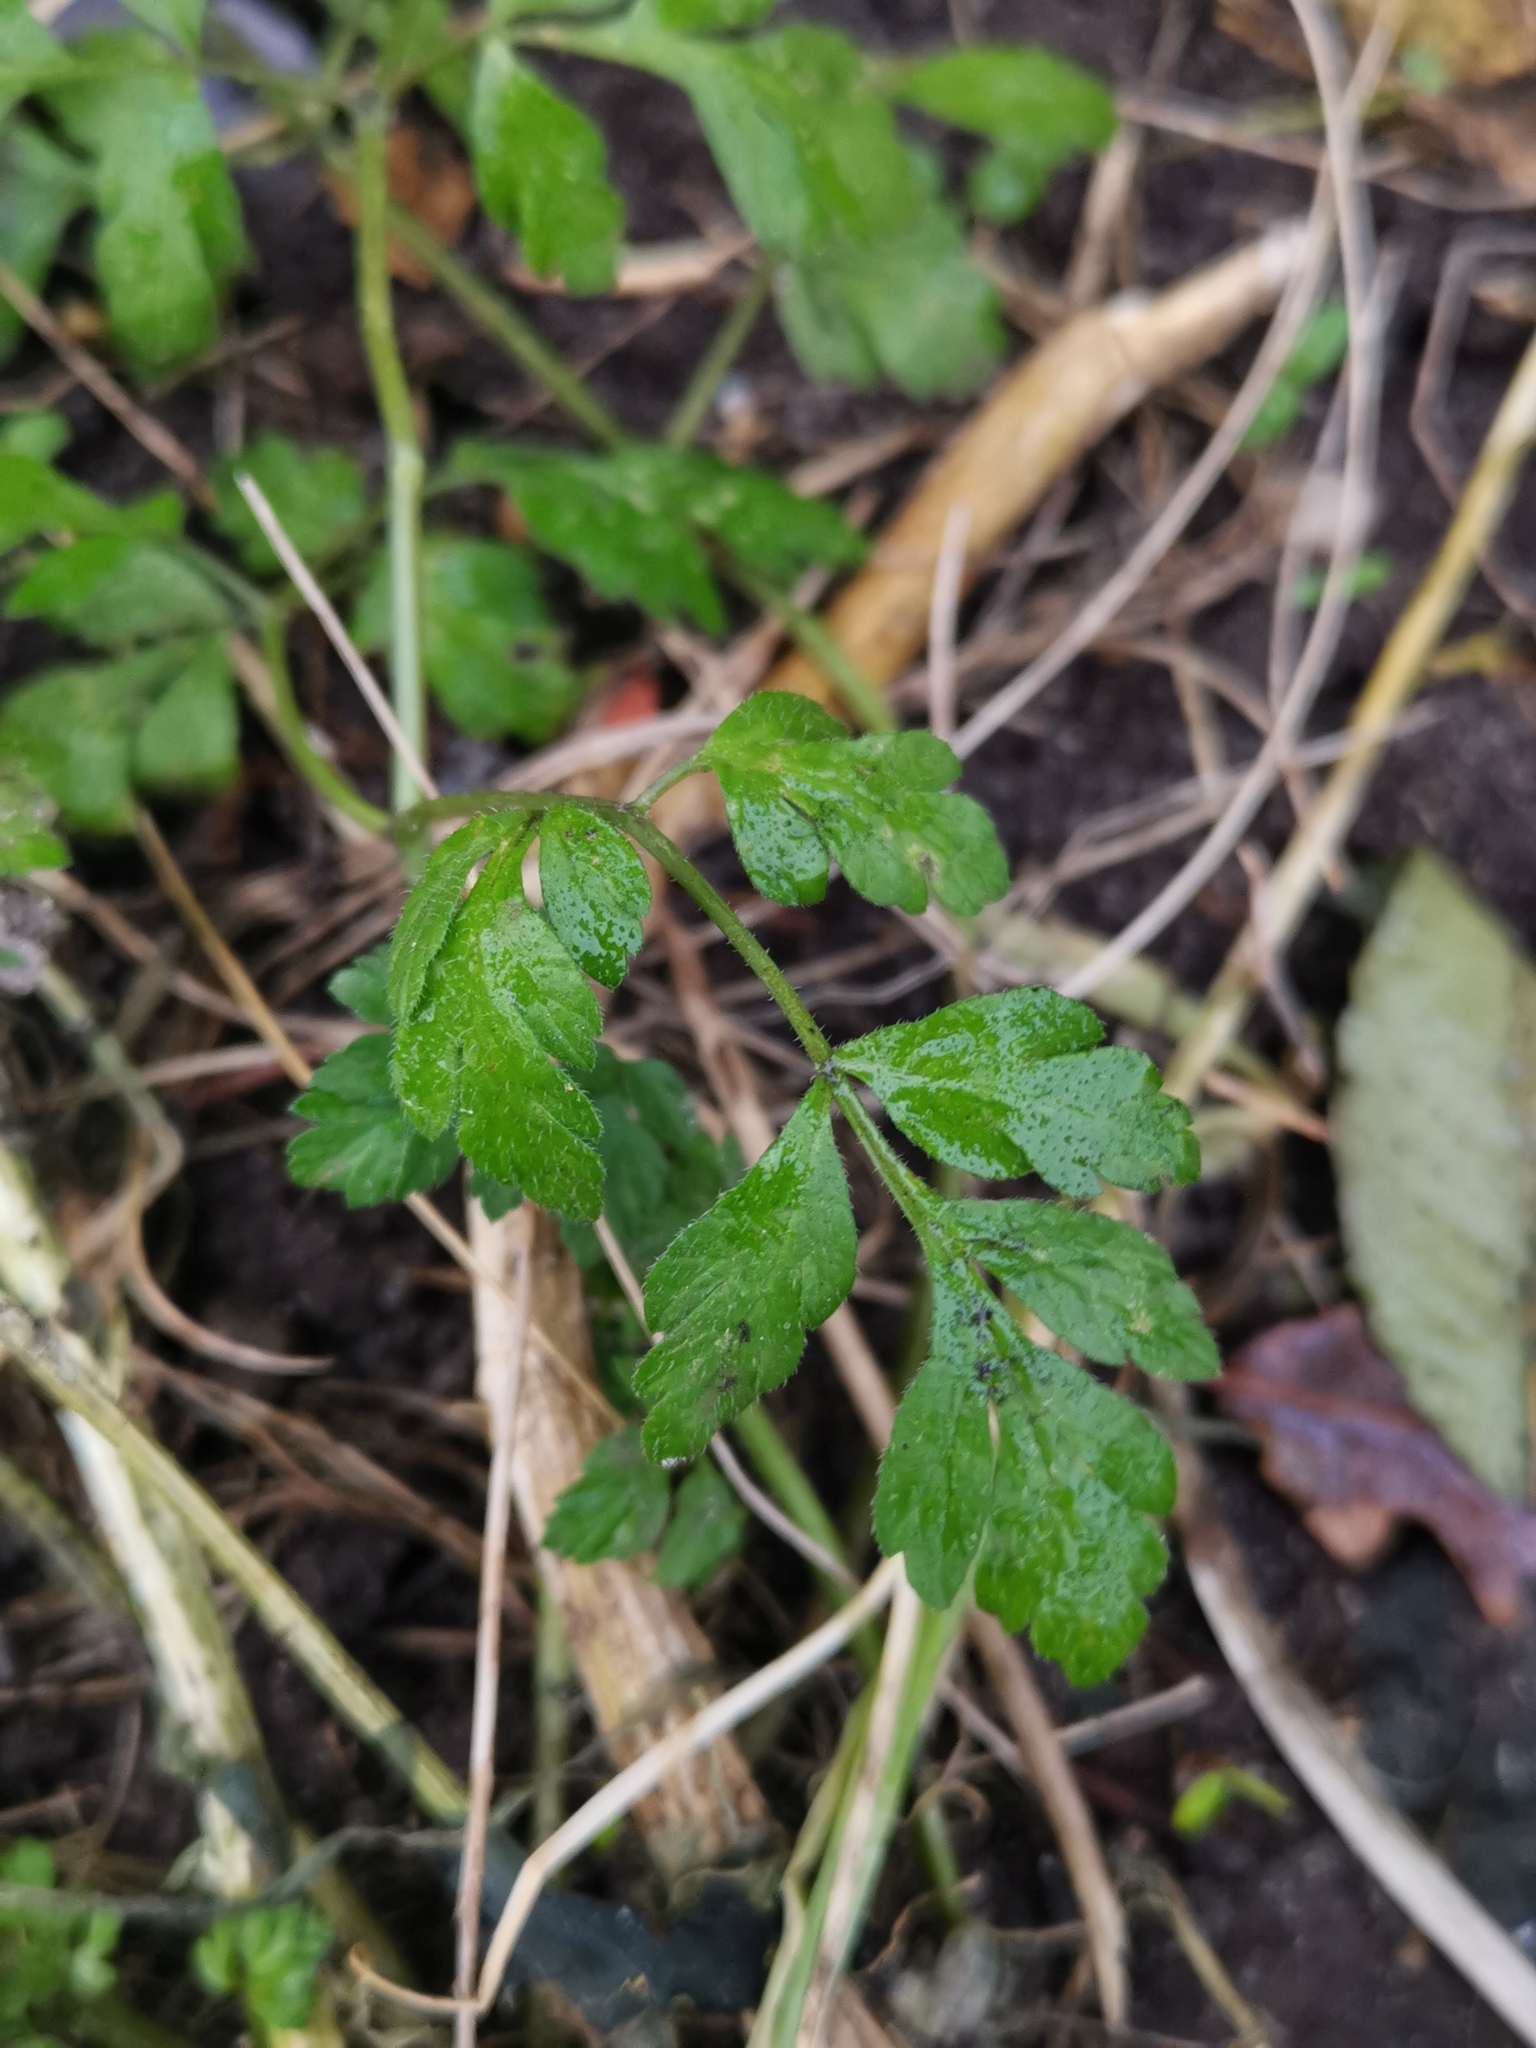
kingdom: Plantae
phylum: Tracheophyta
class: Magnoliopsida
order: Apiales
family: Apiaceae
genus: Chaerophyllum
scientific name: Chaerophyllum temulum
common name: Rough chervil
